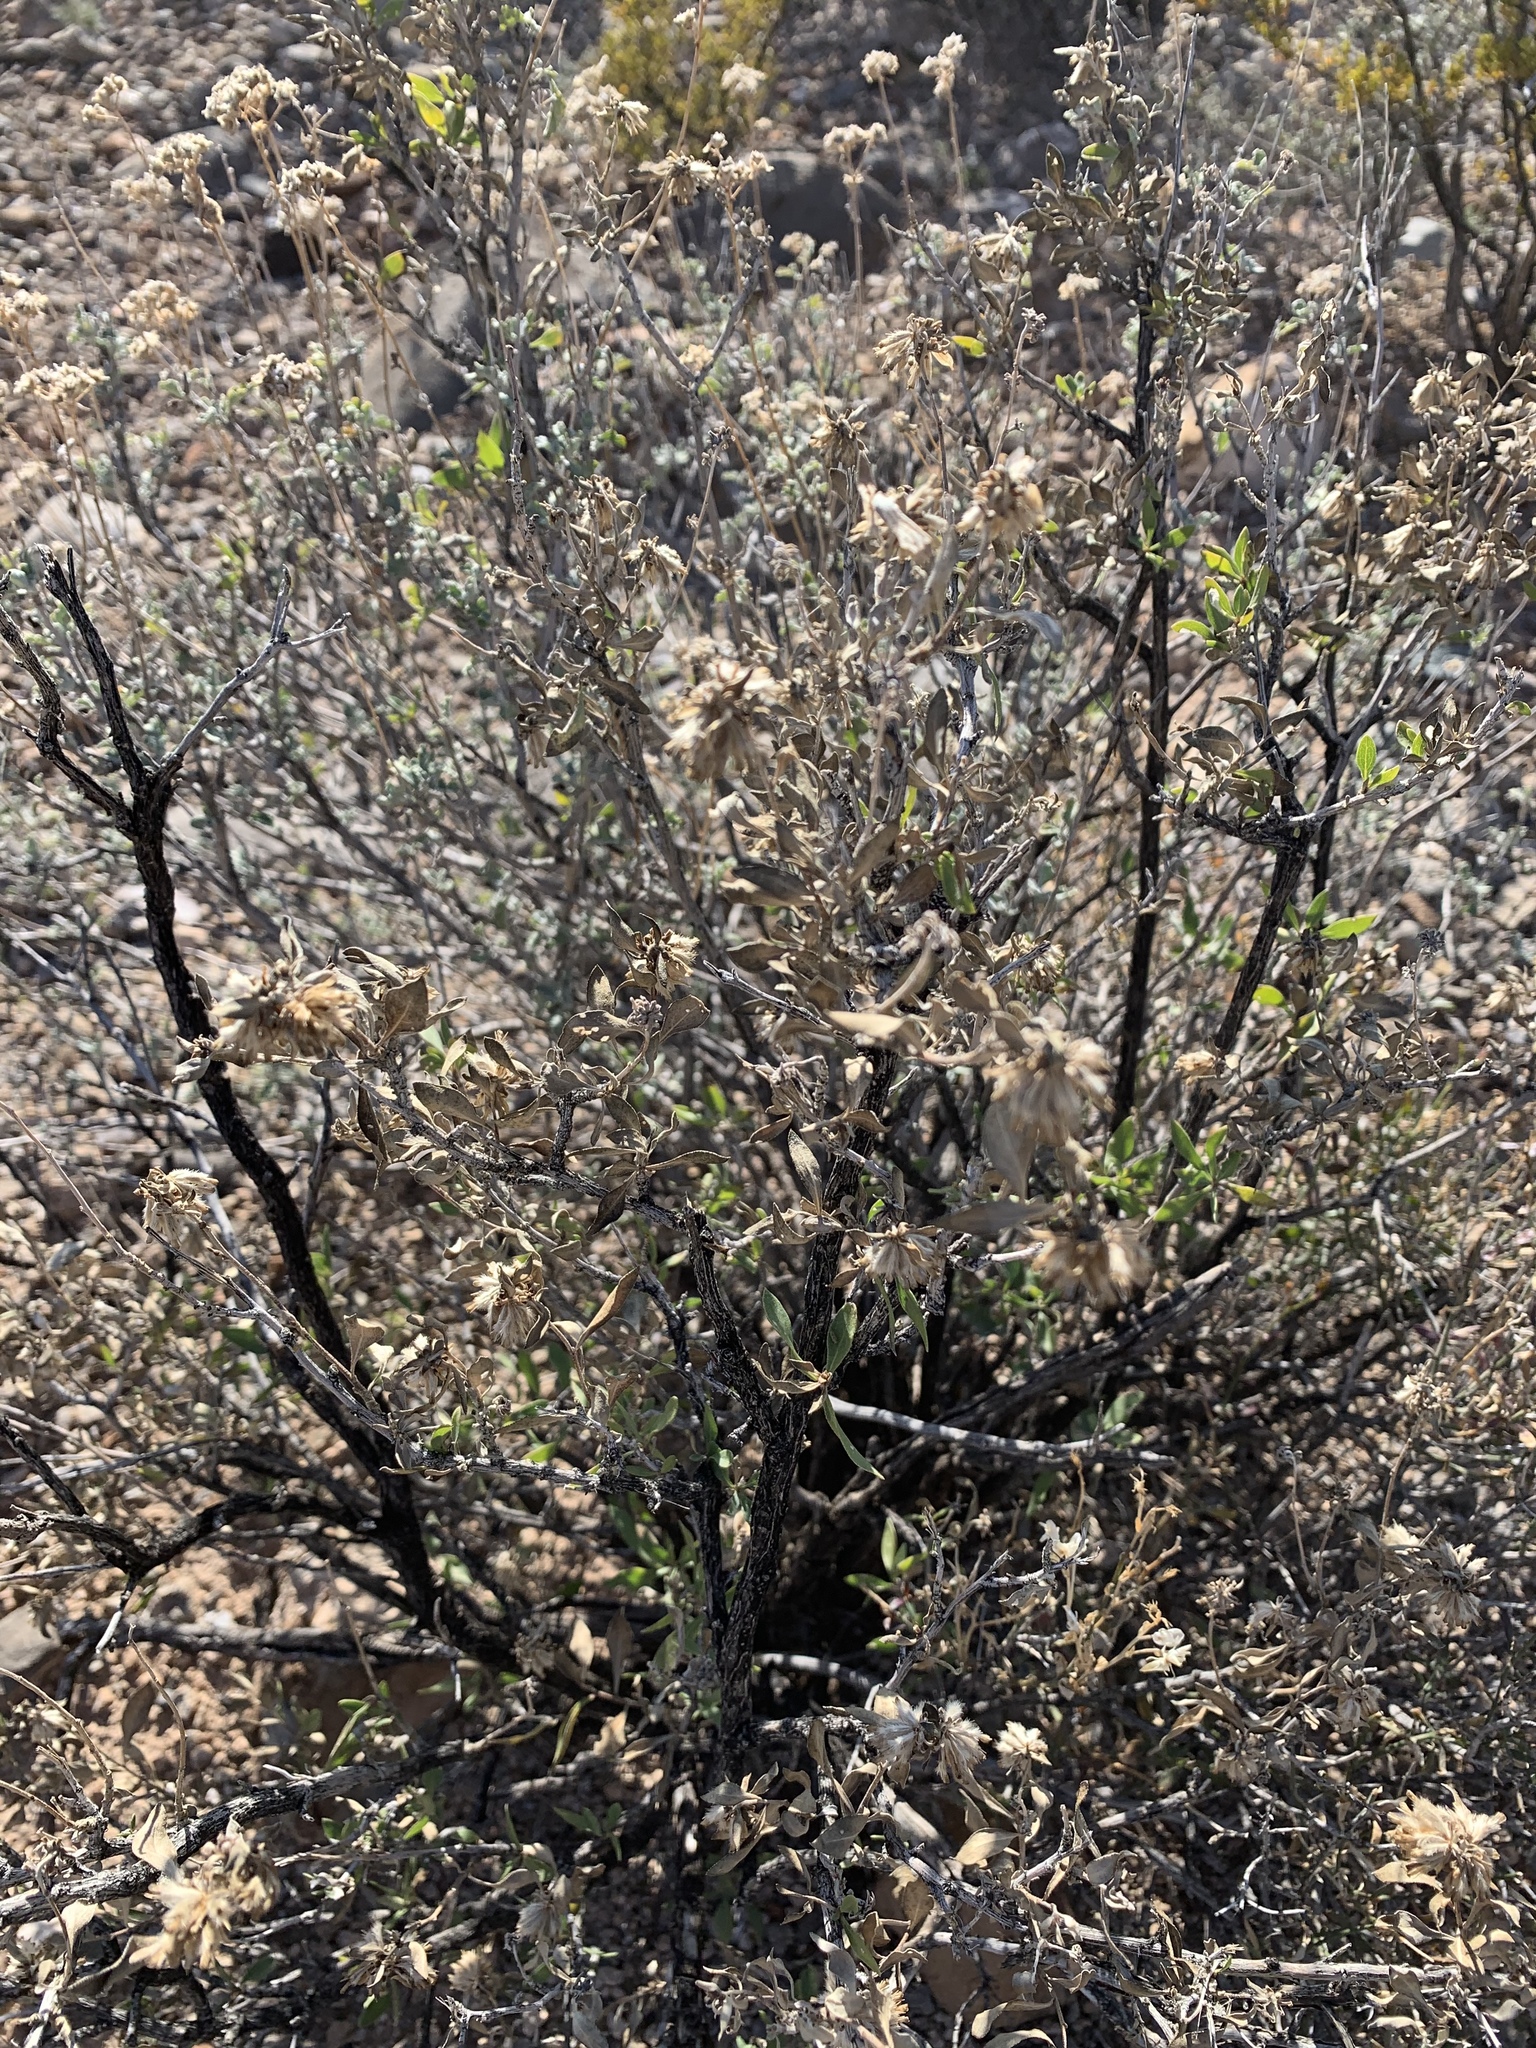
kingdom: Plantae
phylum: Tracheophyta
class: Magnoliopsida
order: Asterales
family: Asteraceae
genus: Flourensia
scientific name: Flourensia cernua
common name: Varnishbush
